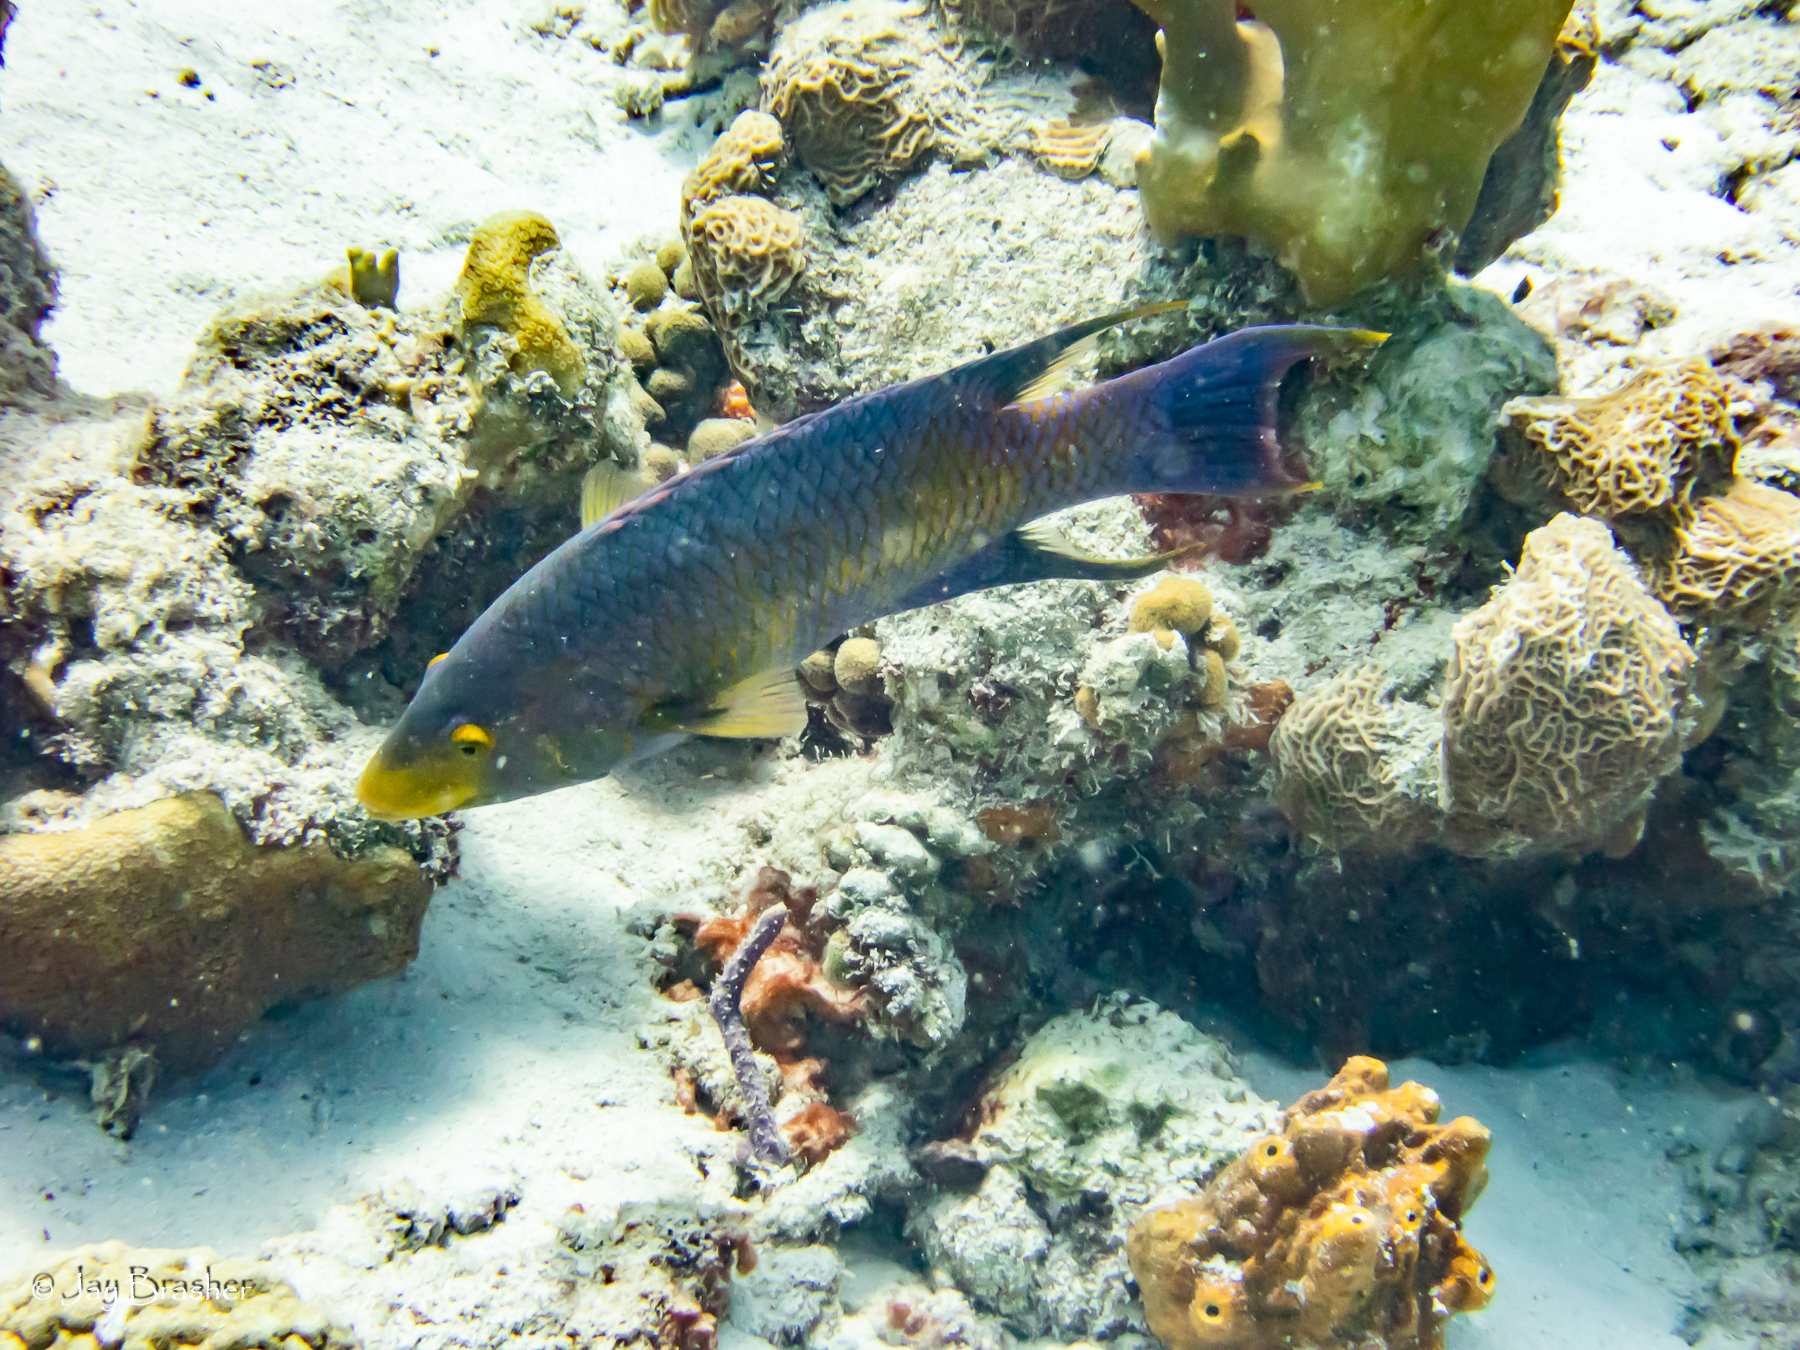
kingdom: Animalia
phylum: Chordata
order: Perciformes
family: Labridae
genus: Bodianus
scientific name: Bodianus rufus
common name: Spanish hogfish
